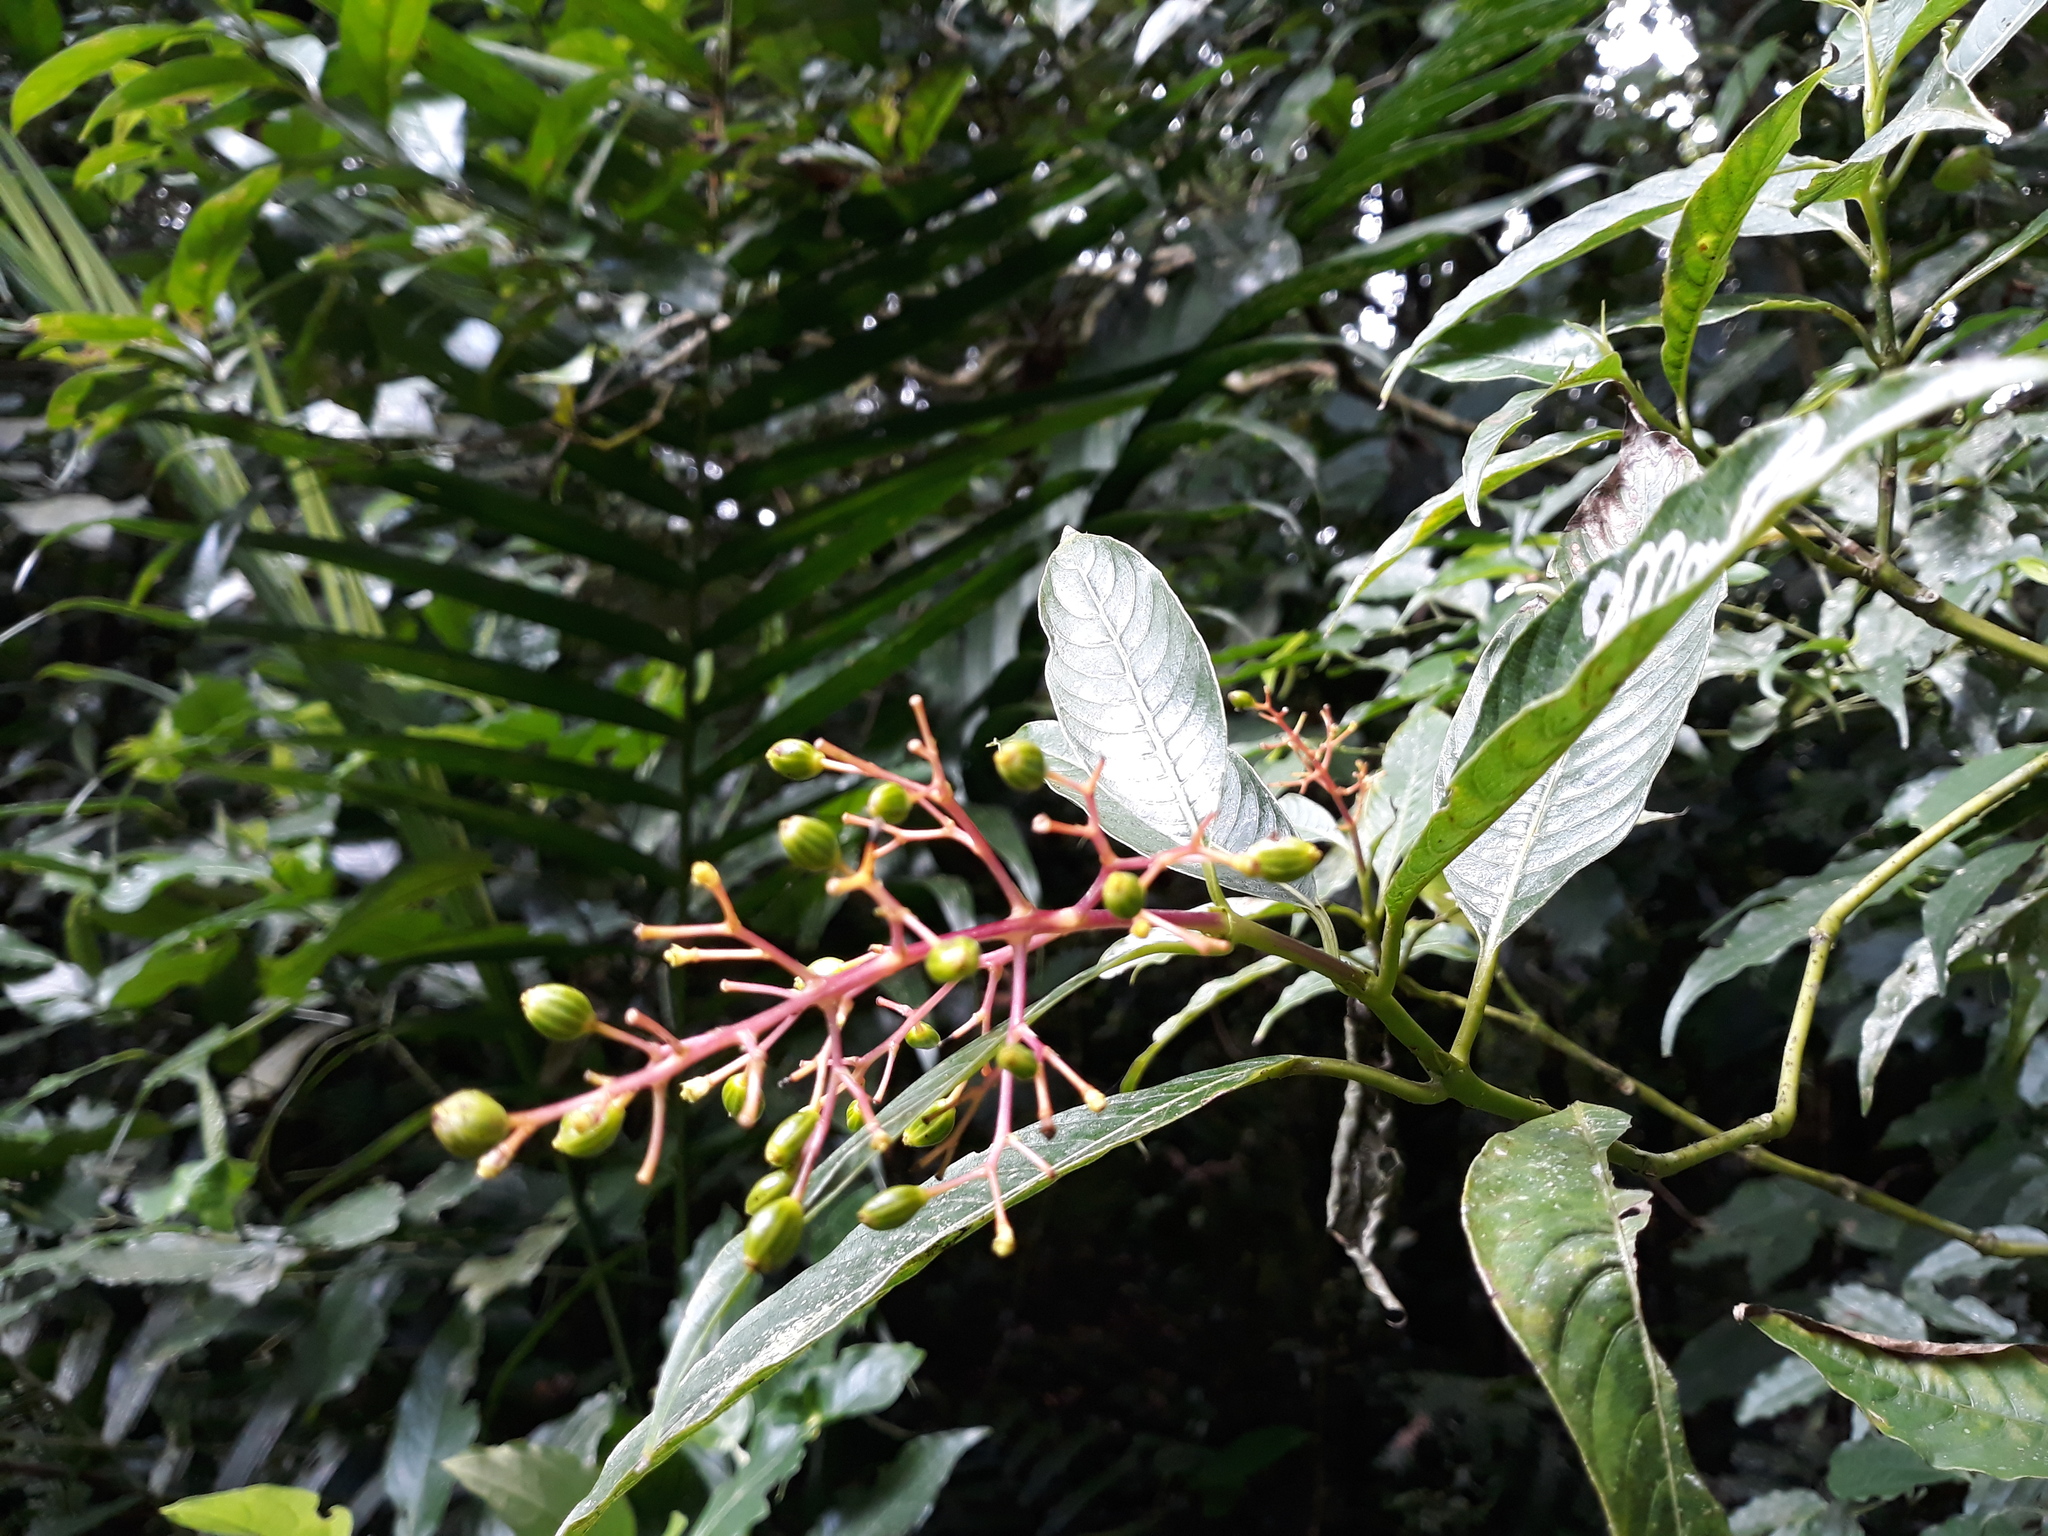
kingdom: Plantae
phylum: Tracheophyta
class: Magnoliopsida
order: Gentianales
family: Rubiaceae
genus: Palicourea
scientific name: Palicourea padifolia
